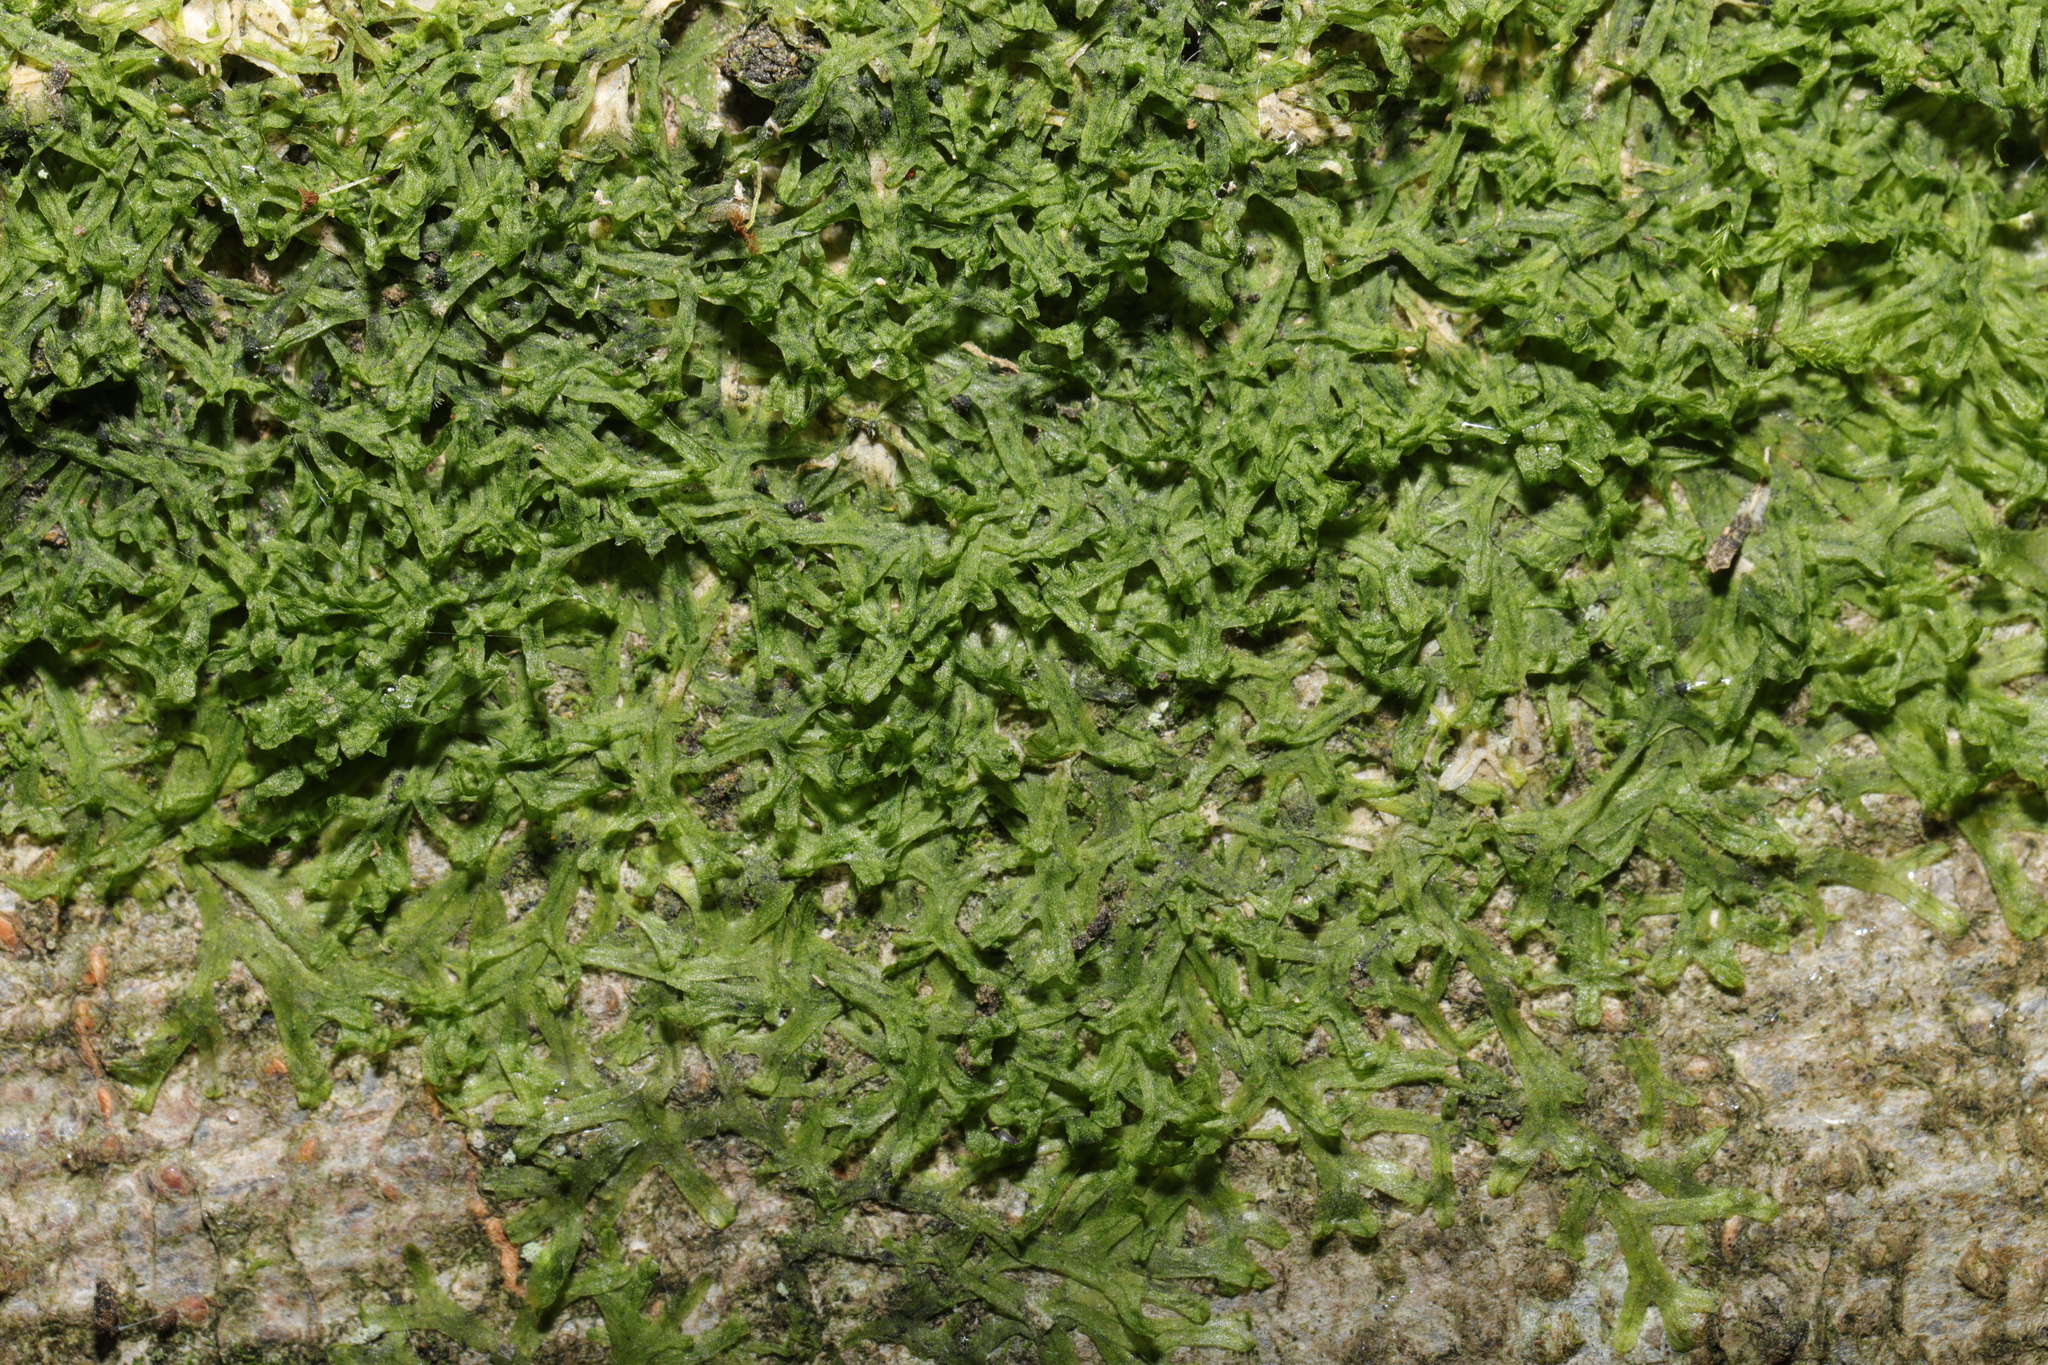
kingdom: Plantae
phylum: Marchantiophyta
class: Jungermanniopsida
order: Metzgeriales
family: Metzgeriaceae
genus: Metzgeria
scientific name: Metzgeria furcata
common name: Forked veilwort
